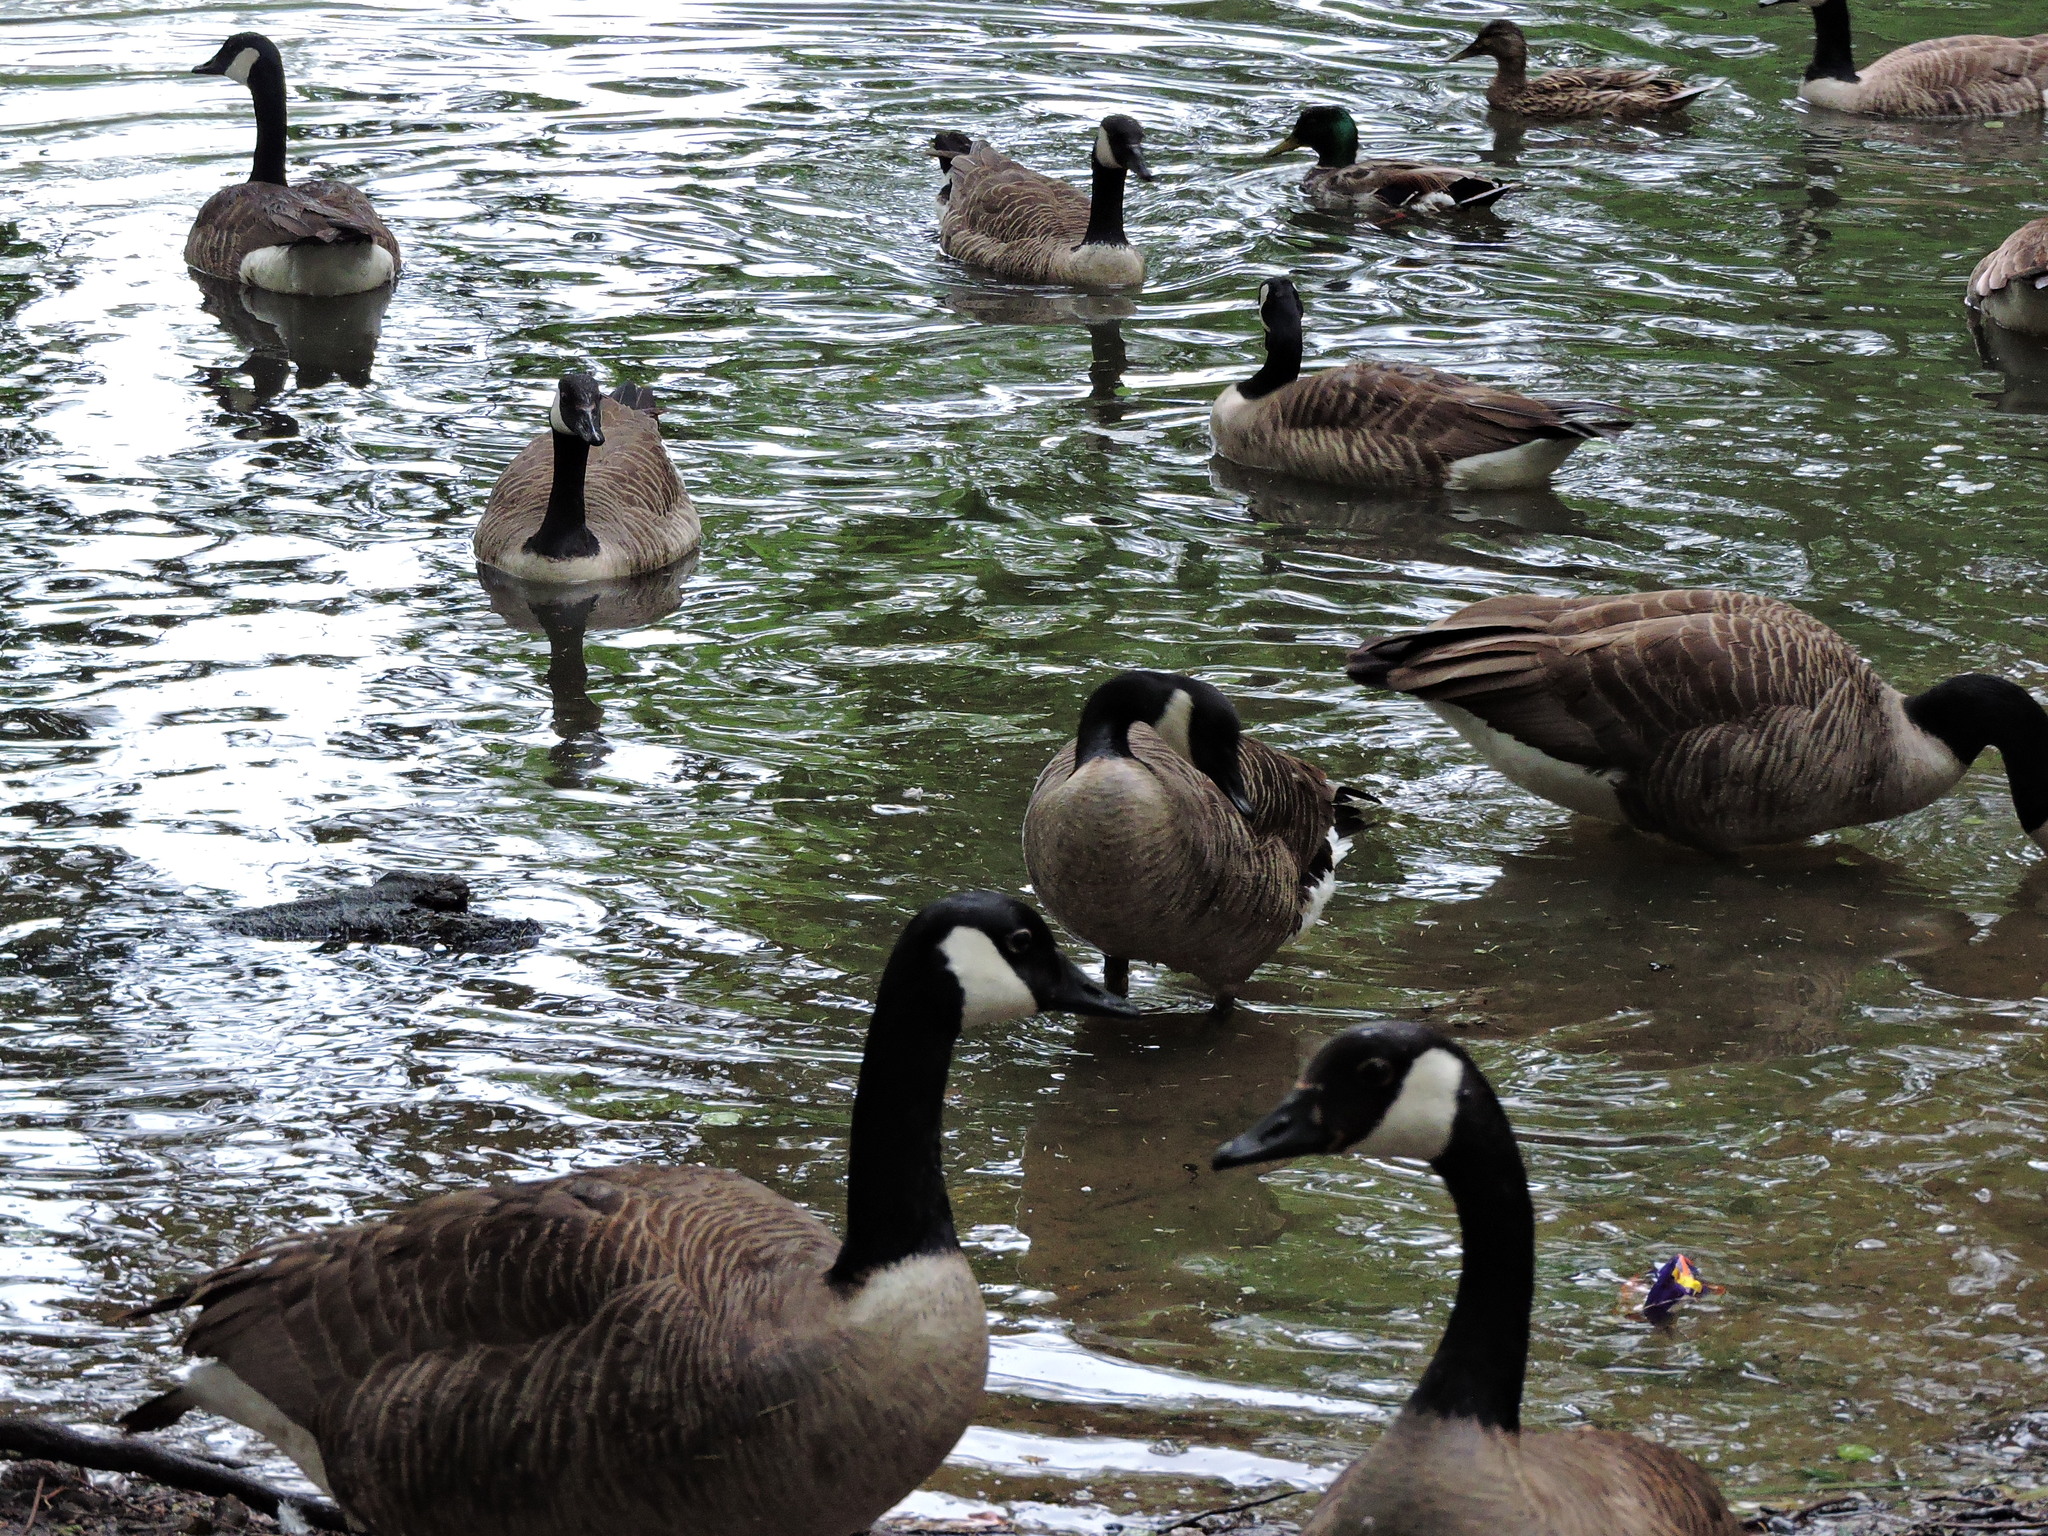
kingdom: Animalia
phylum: Chordata
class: Aves
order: Anseriformes
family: Anatidae
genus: Branta
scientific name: Branta canadensis
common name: Canada goose
